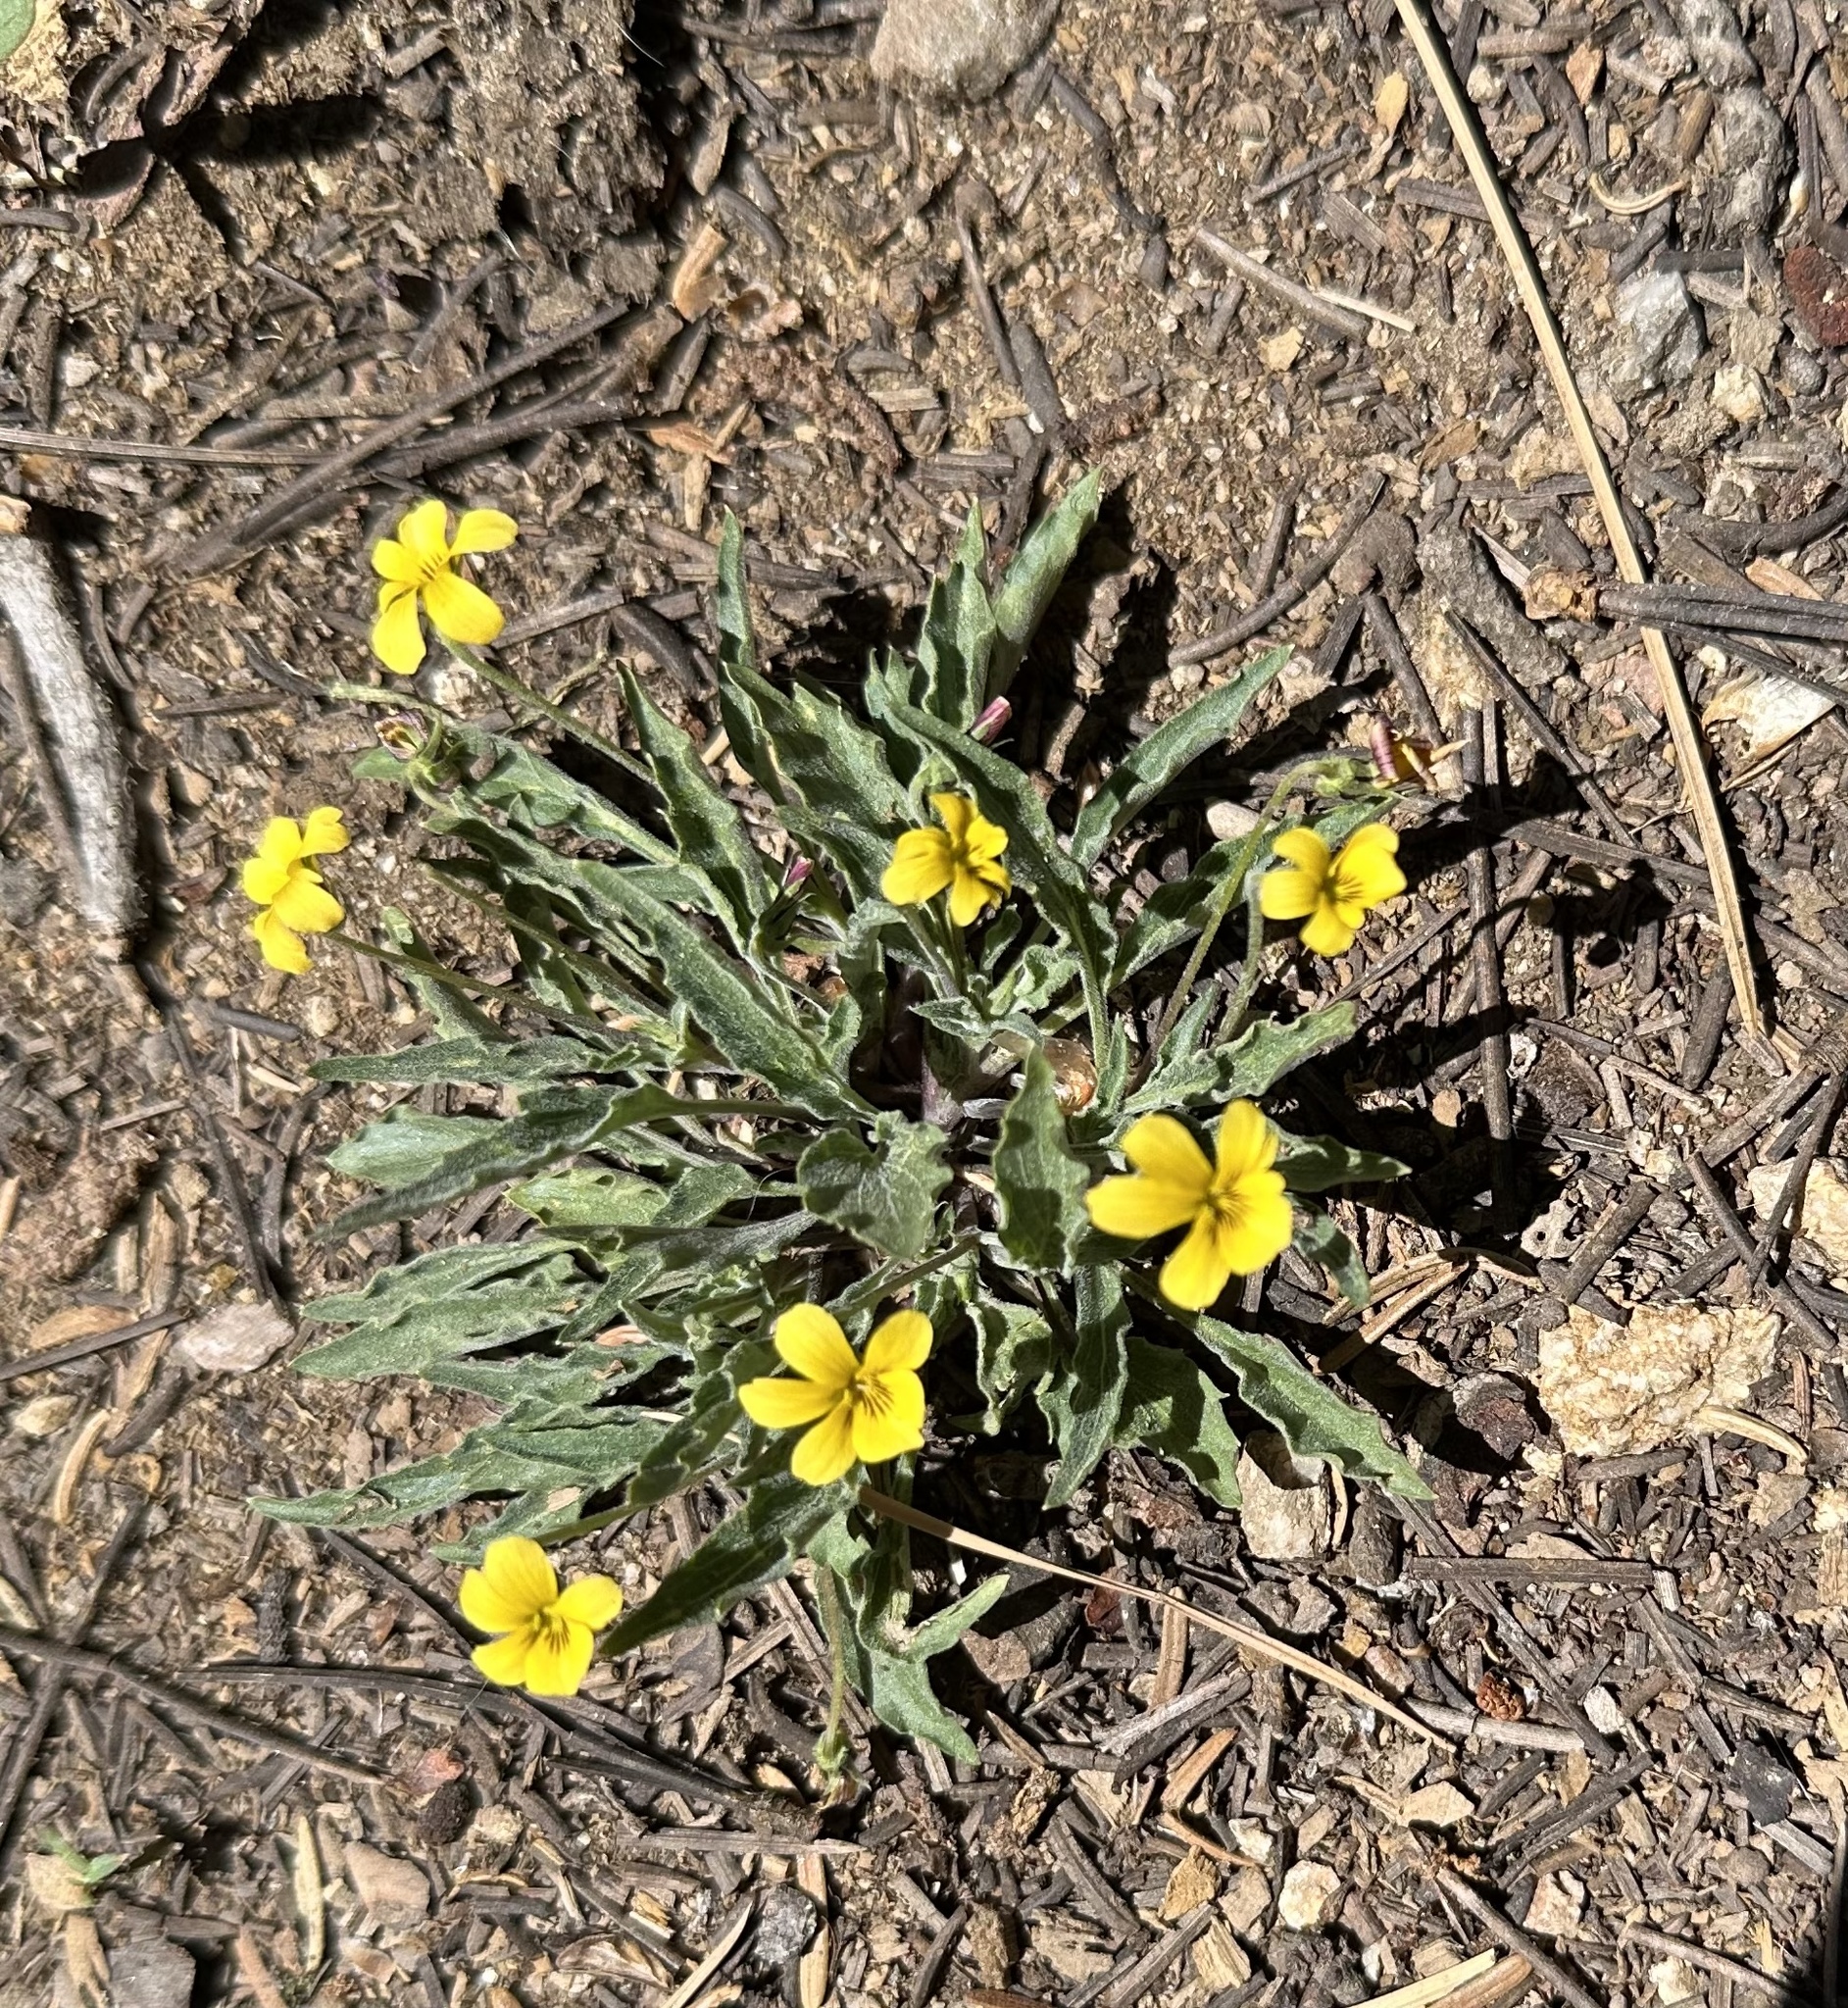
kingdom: Plantae
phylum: Tracheophyta
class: Magnoliopsida
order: Malpighiales
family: Violaceae
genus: Viola
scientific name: Viola pinetorum
